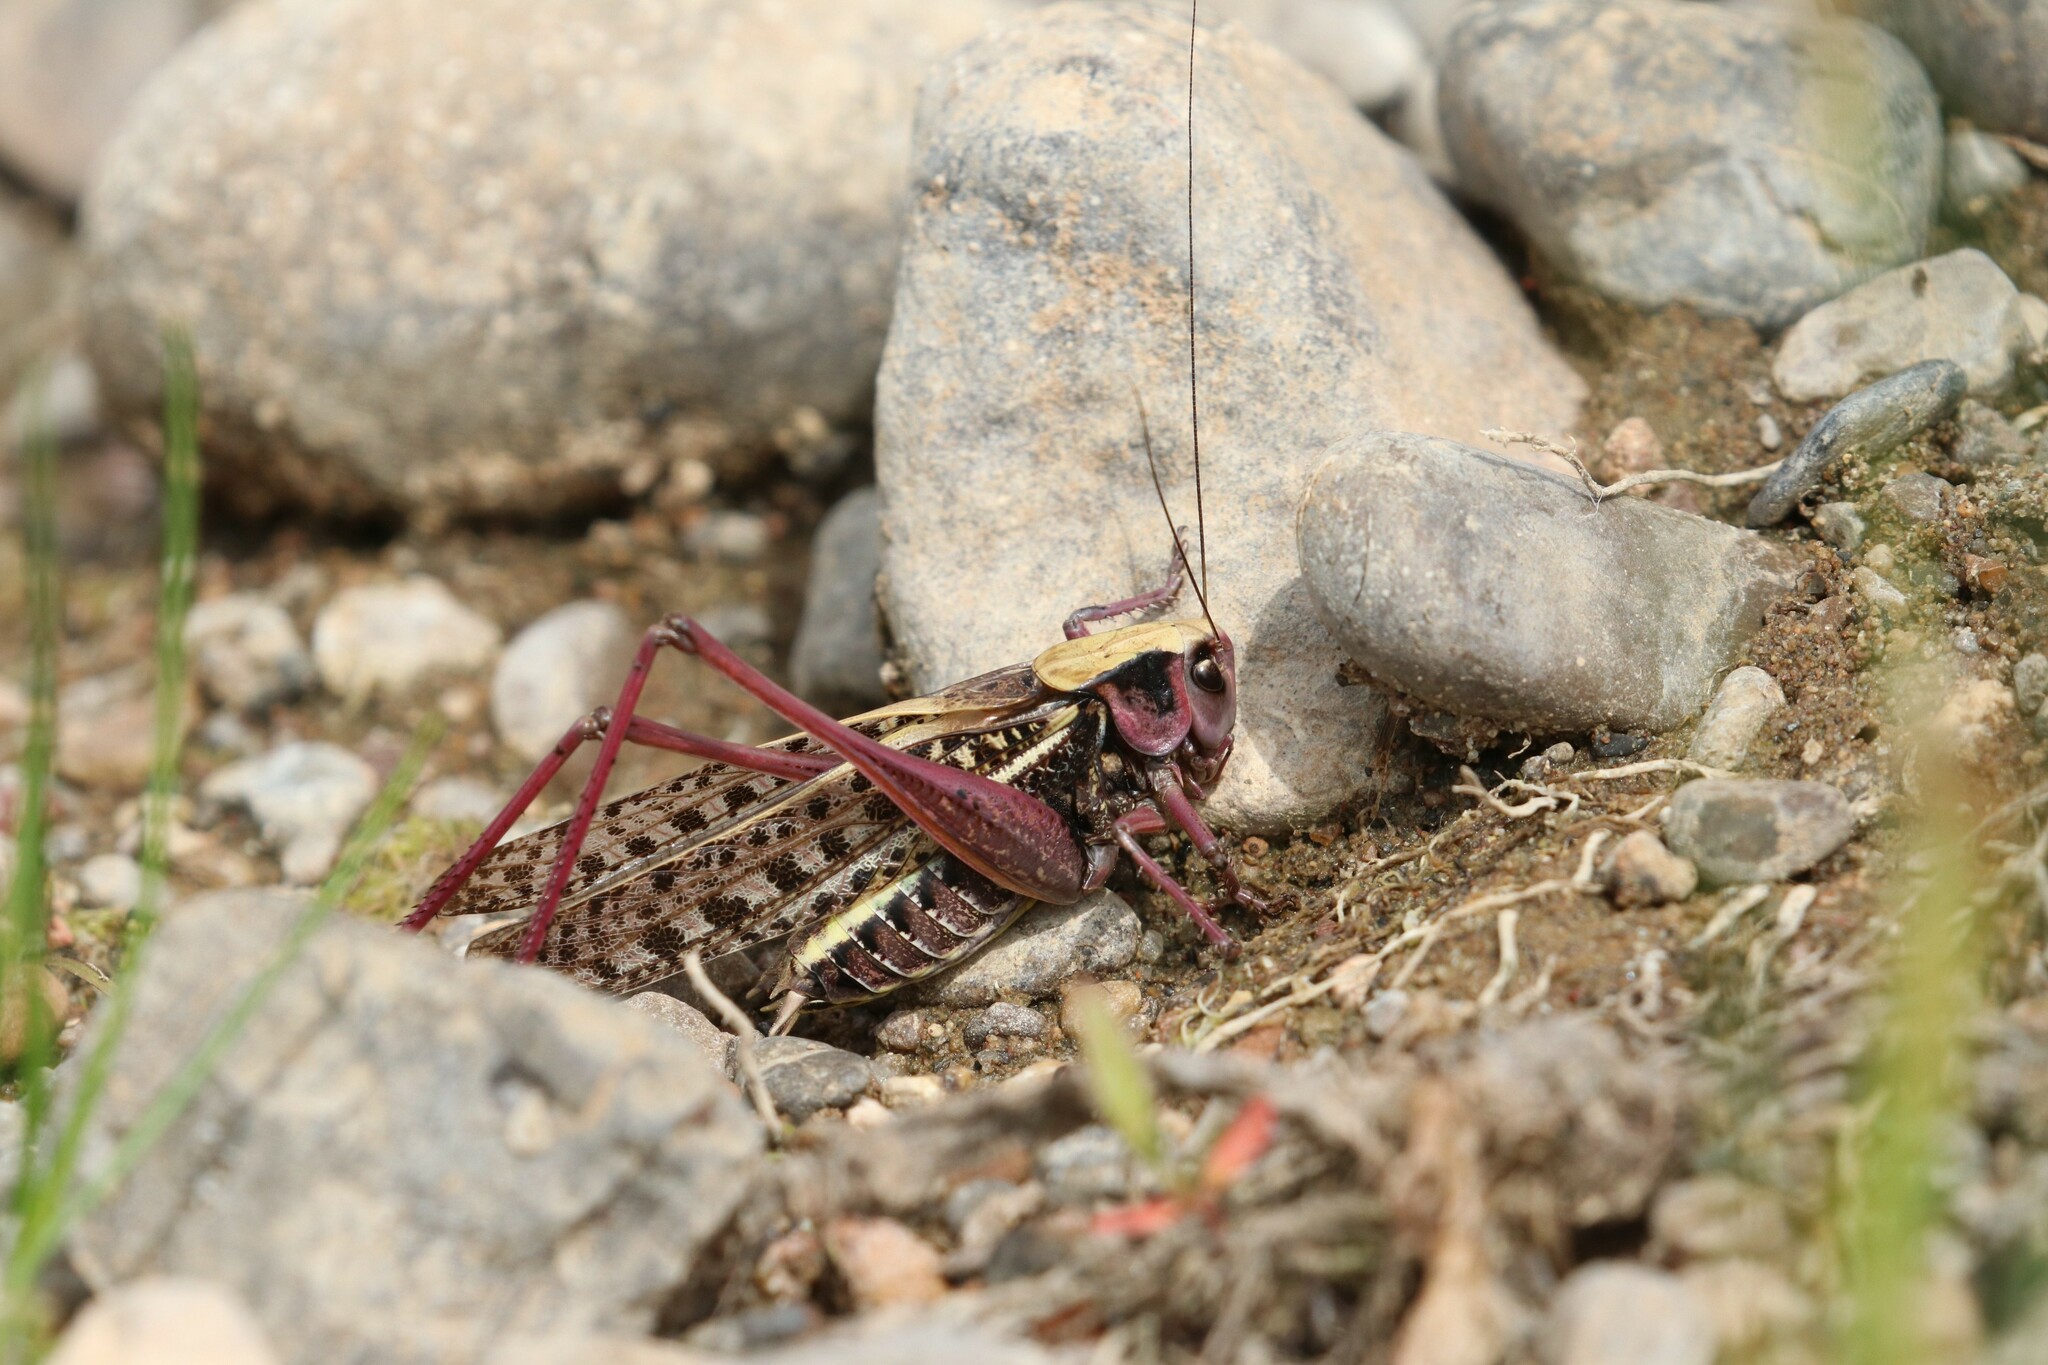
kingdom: Animalia
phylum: Arthropoda
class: Insecta
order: Orthoptera
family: Tettigoniidae
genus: Decticus
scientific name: Decticus verrucivorus
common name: Wart-biter
